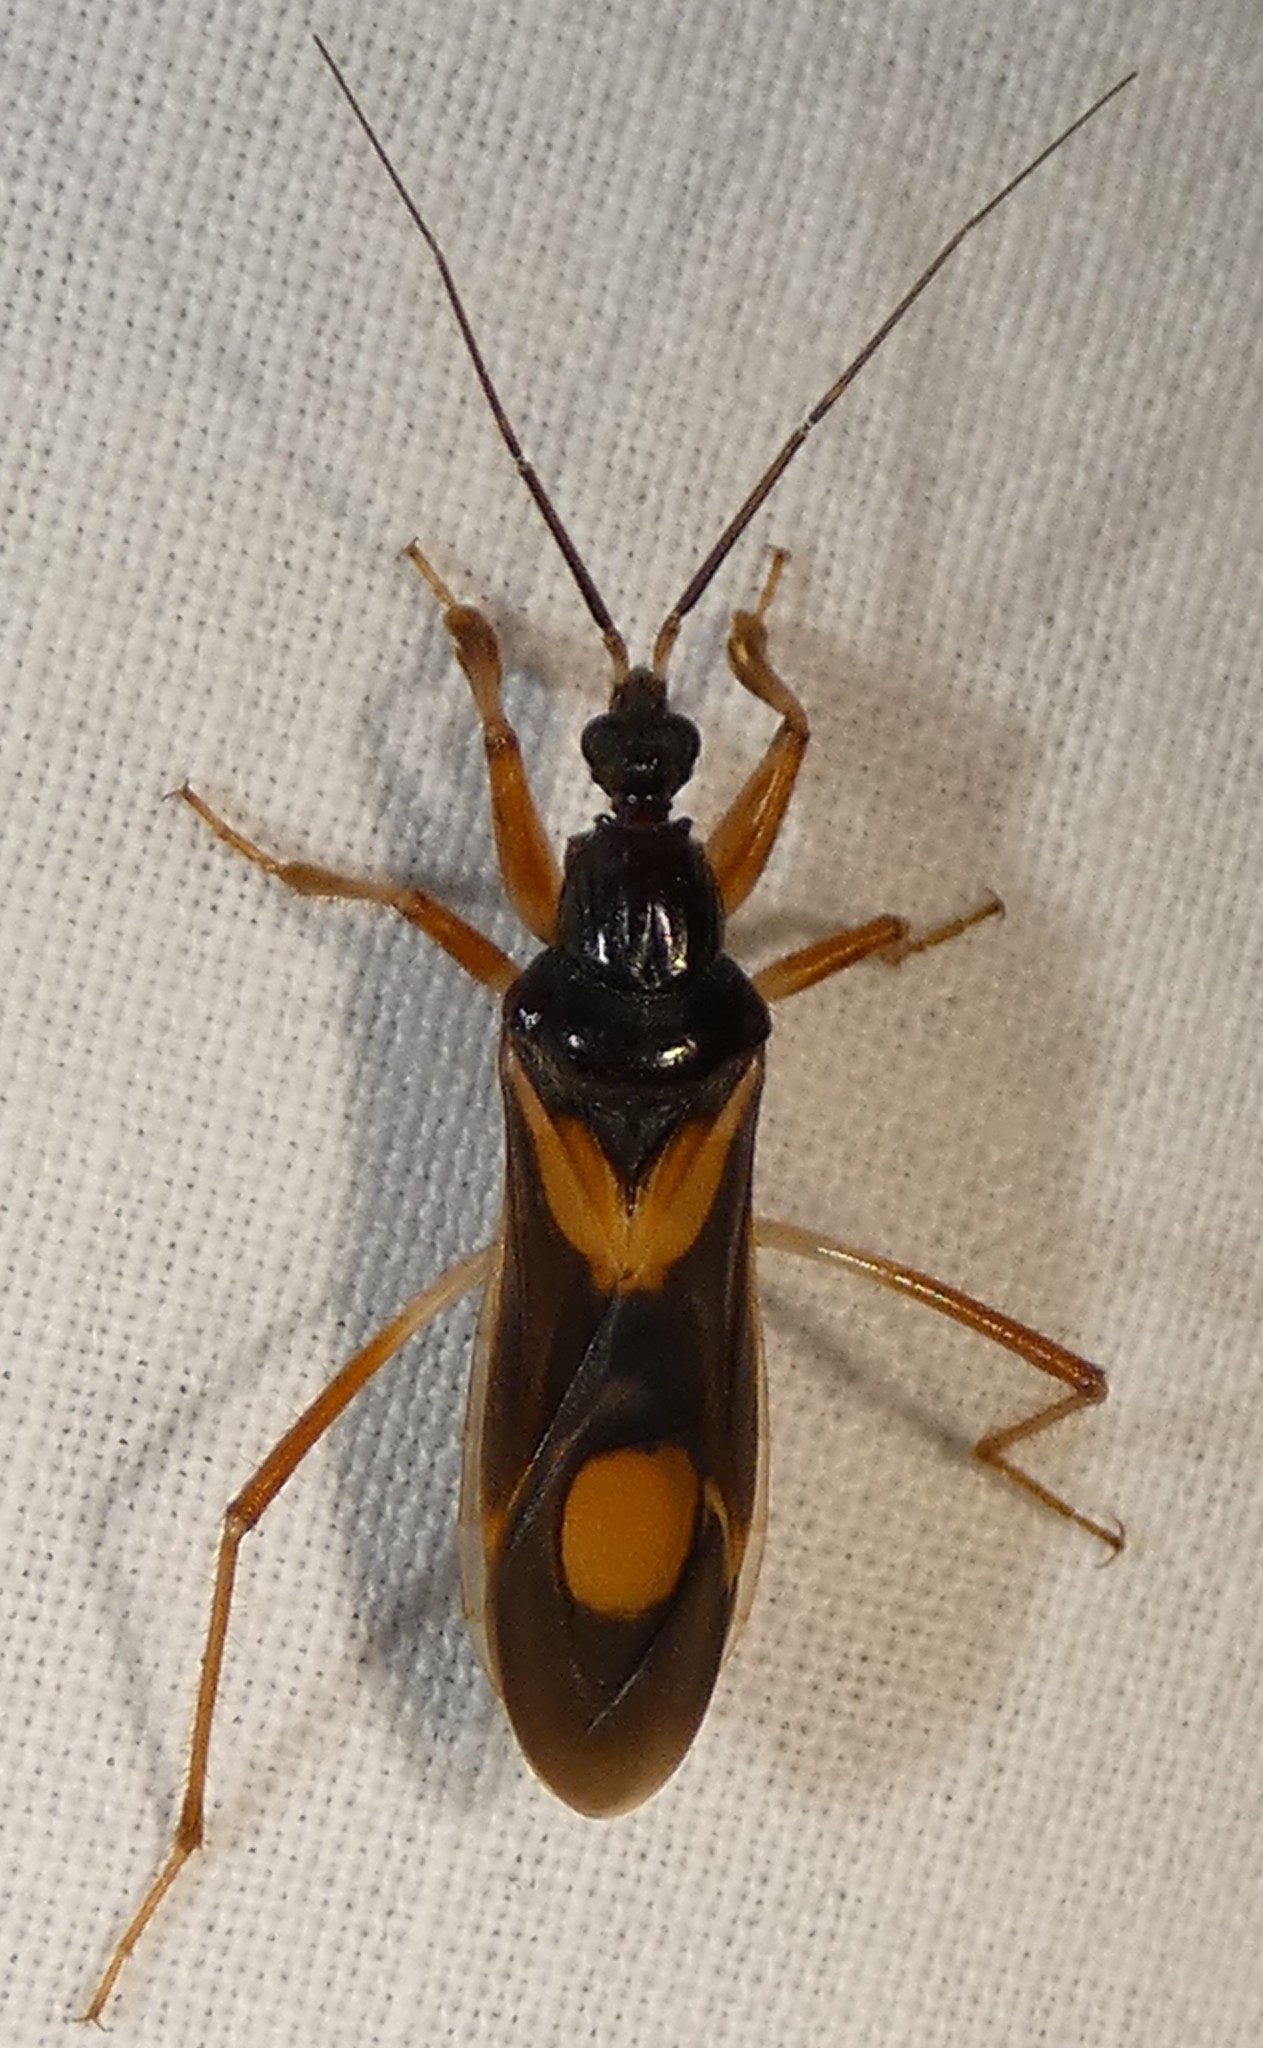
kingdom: Animalia
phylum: Arthropoda
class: Insecta
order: Hemiptera
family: Reduviidae
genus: Rasahus
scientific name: Rasahus hamatus
